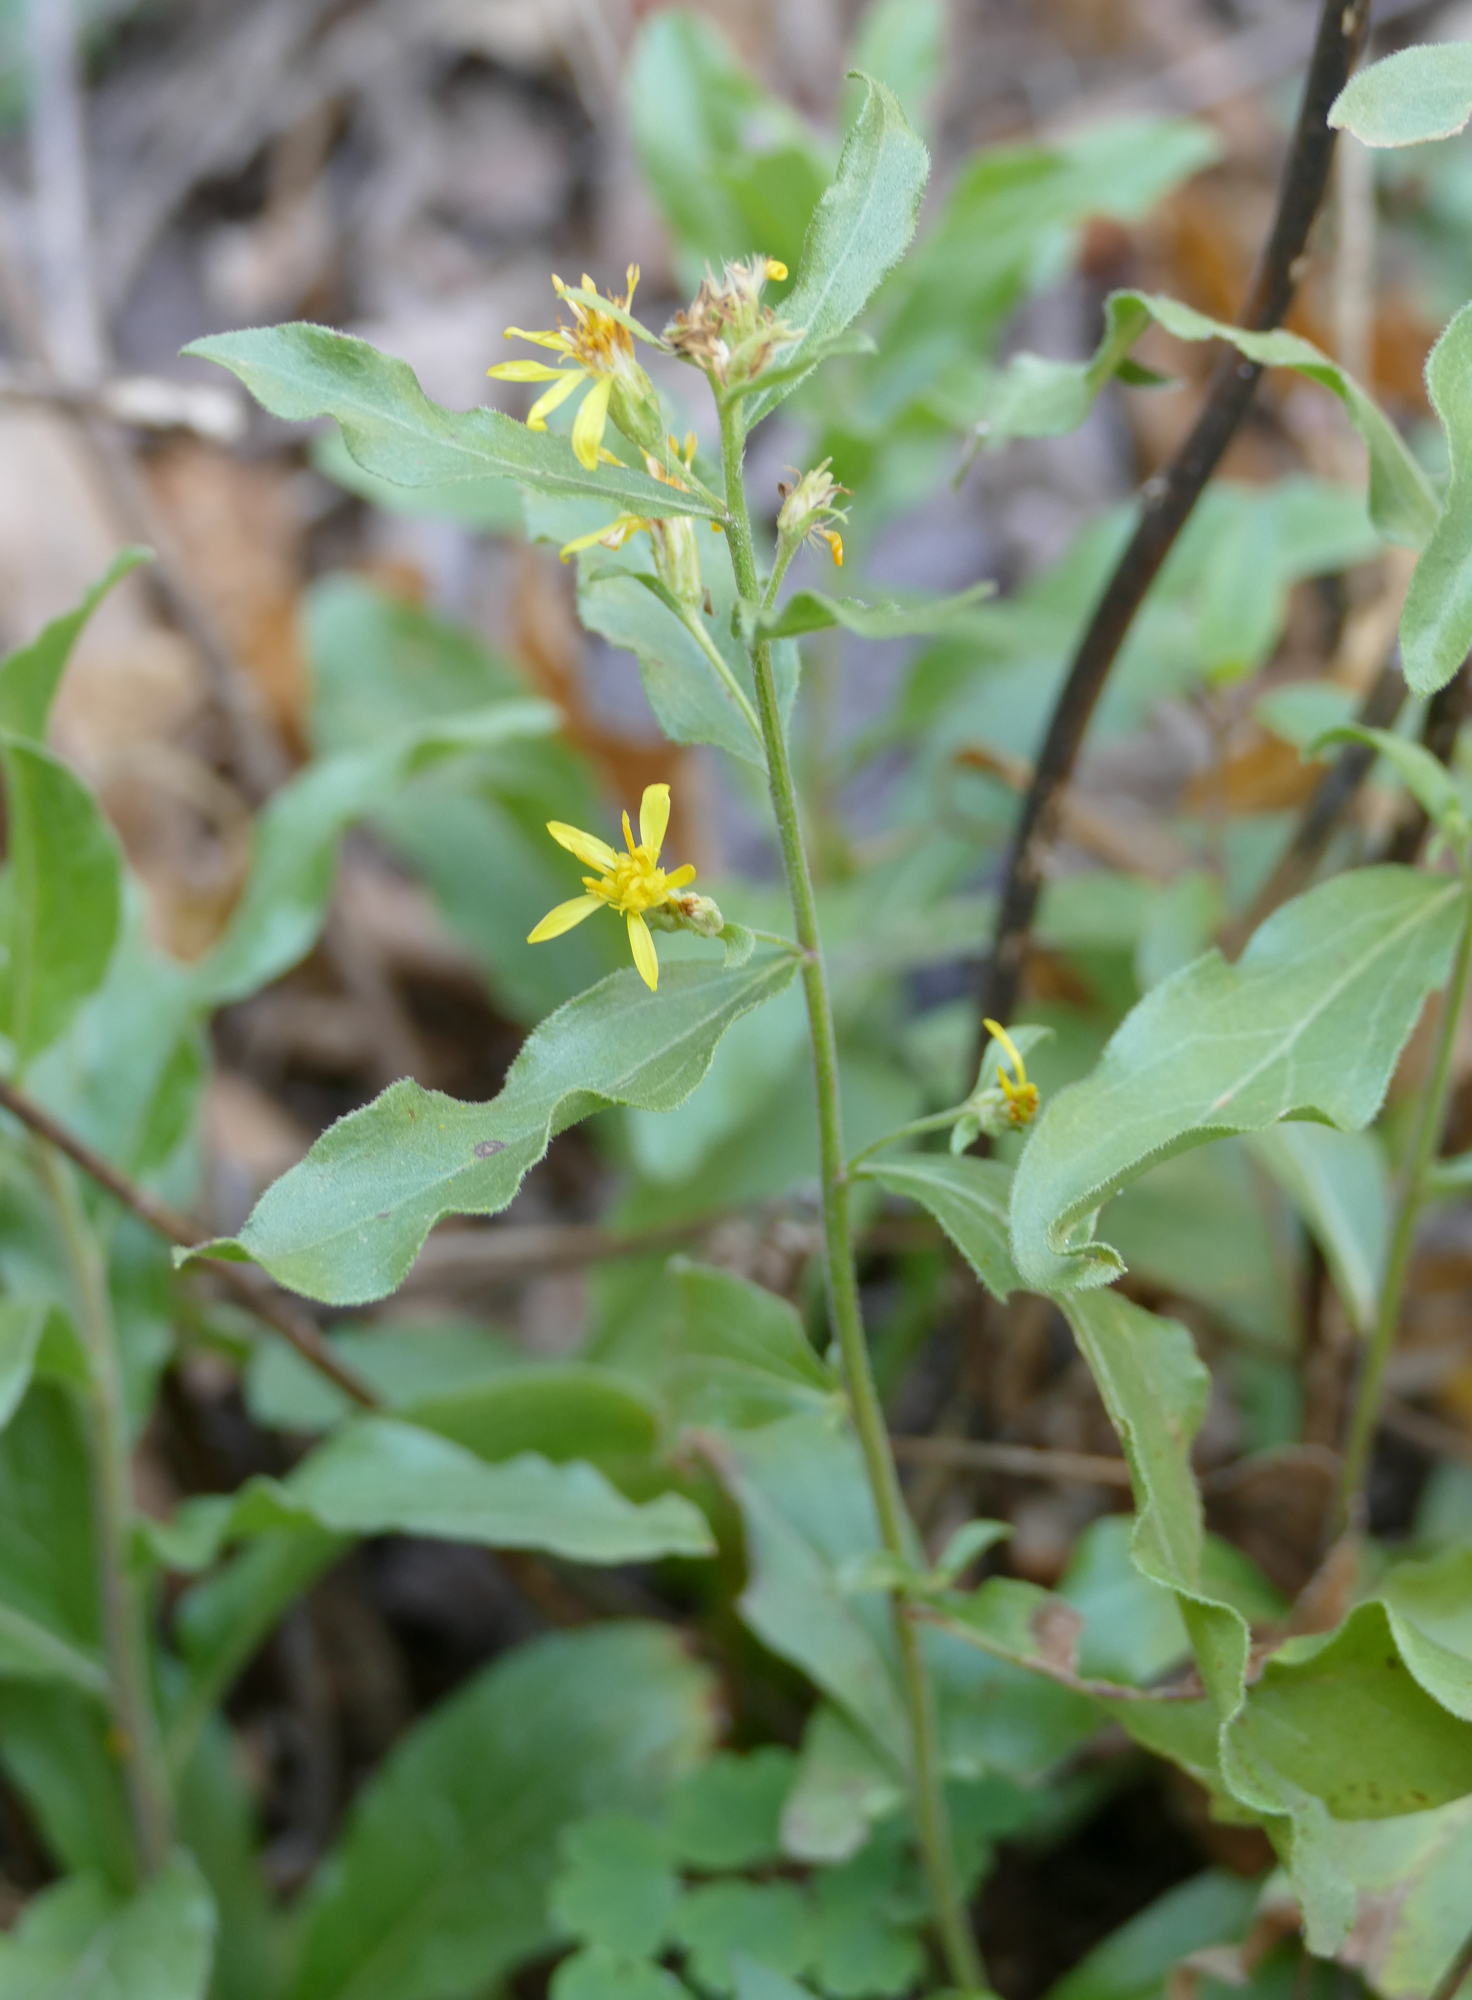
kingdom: Plantae
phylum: Tracheophyta
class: Magnoliopsida
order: Asterales
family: Asteraceae
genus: Solidago
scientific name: Solidago wrightii
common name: Wright's goldenrod
